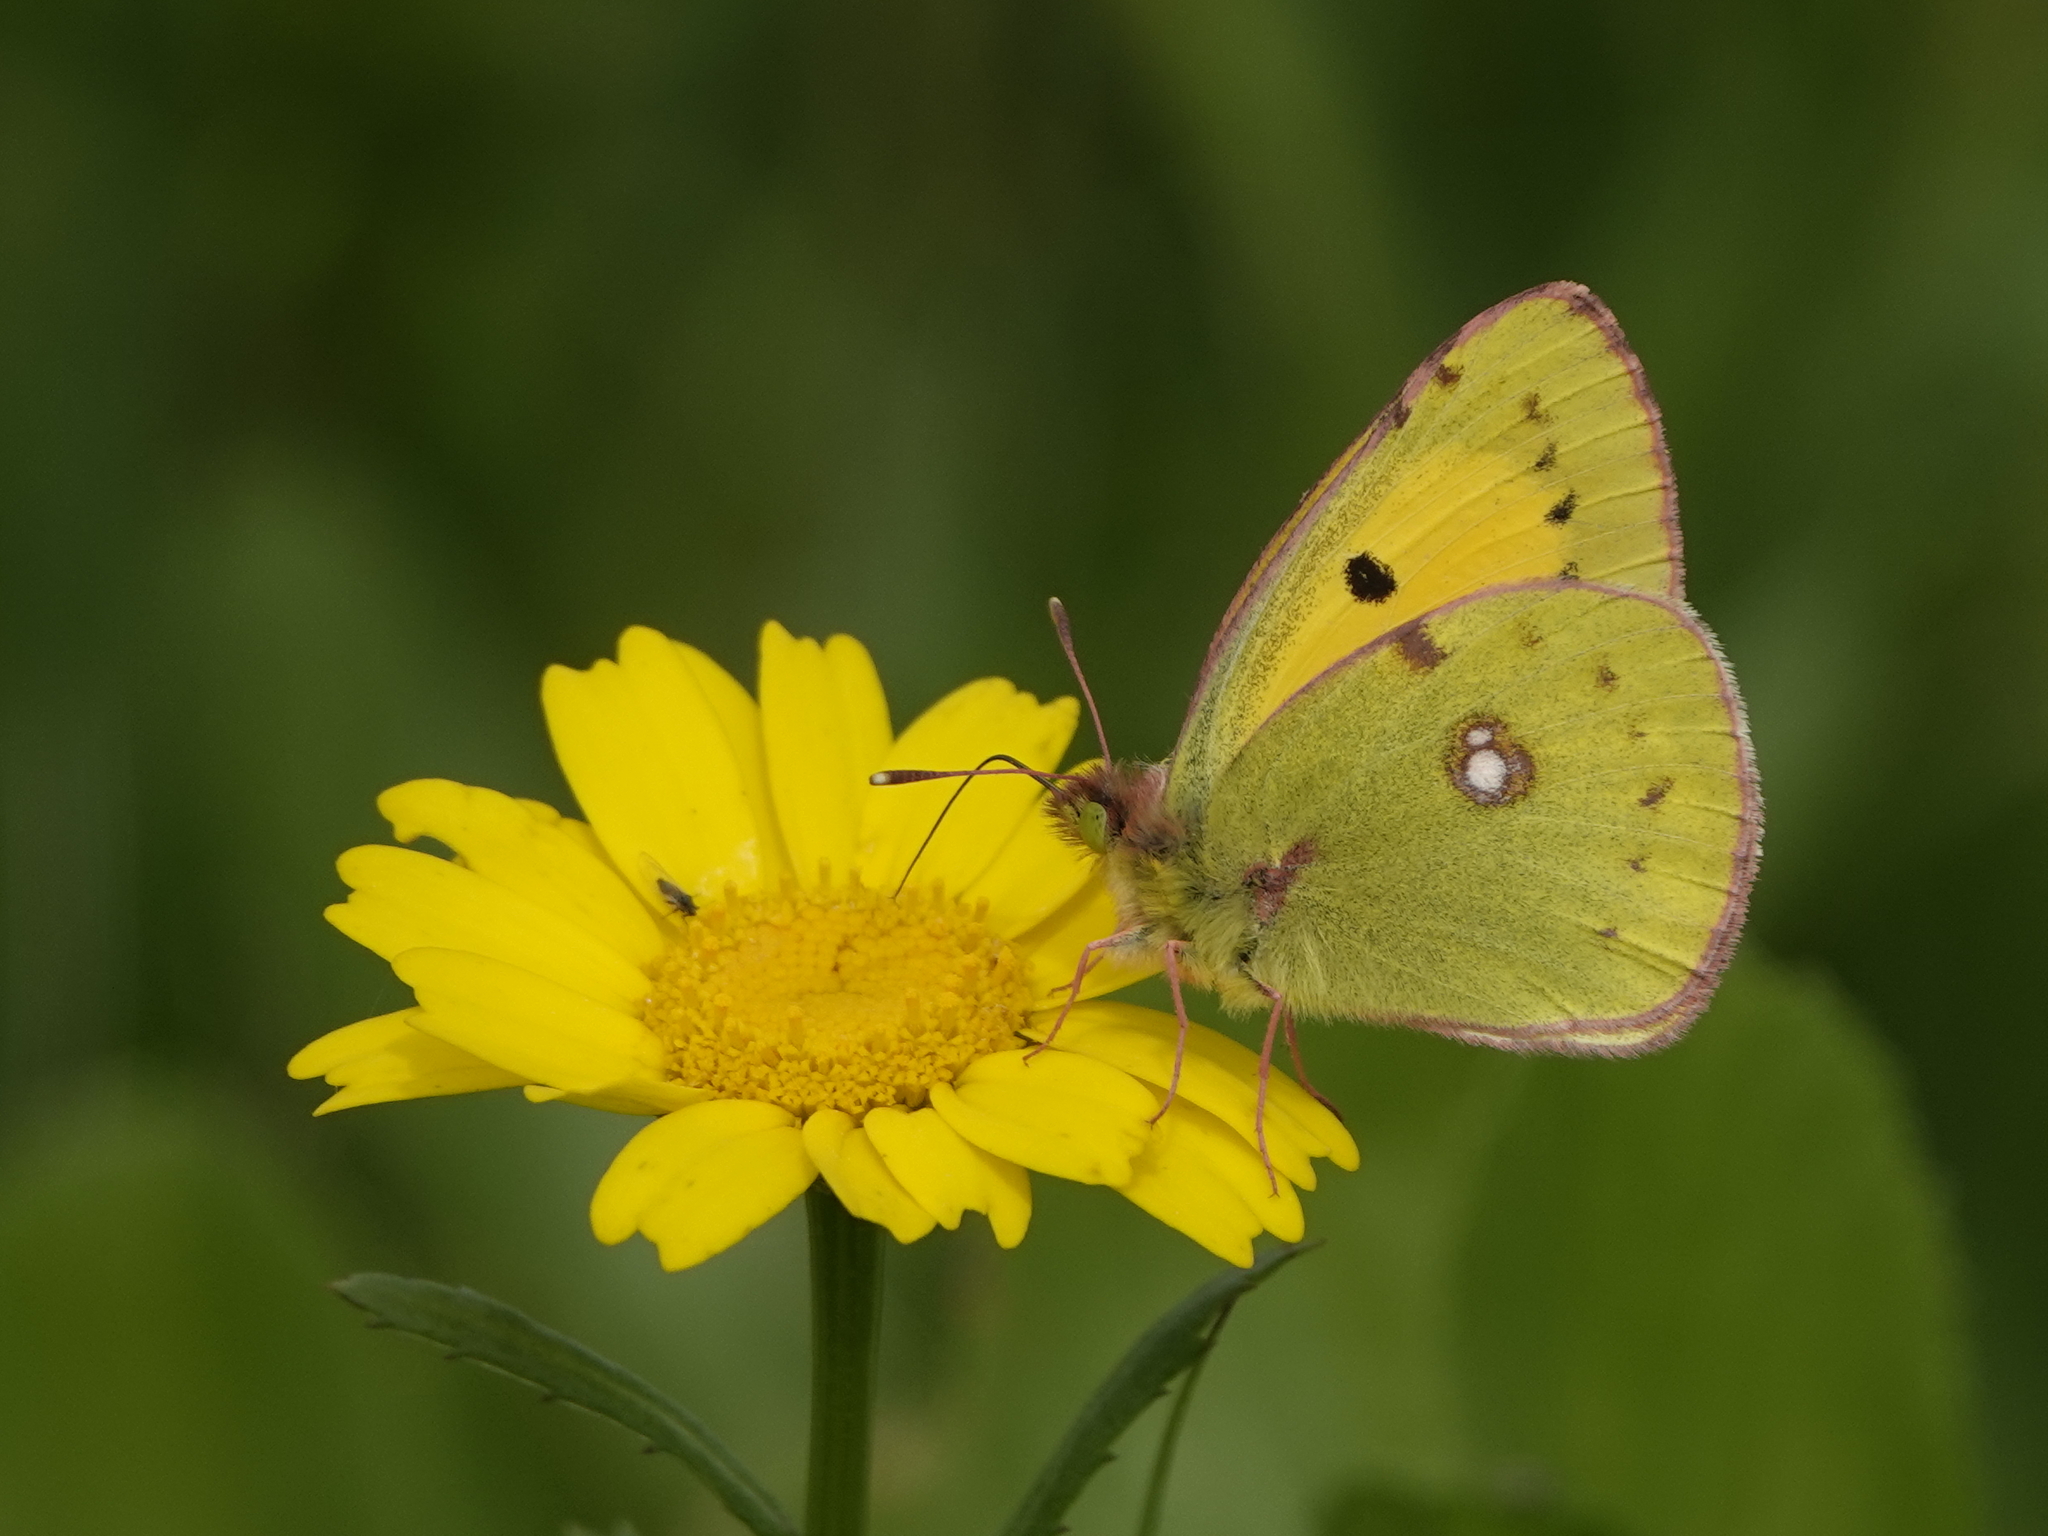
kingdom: Animalia
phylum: Arthropoda
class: Insecta
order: Lepidoptera
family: Pieridae
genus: Colias
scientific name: Colias croceus
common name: Clouded yellow
